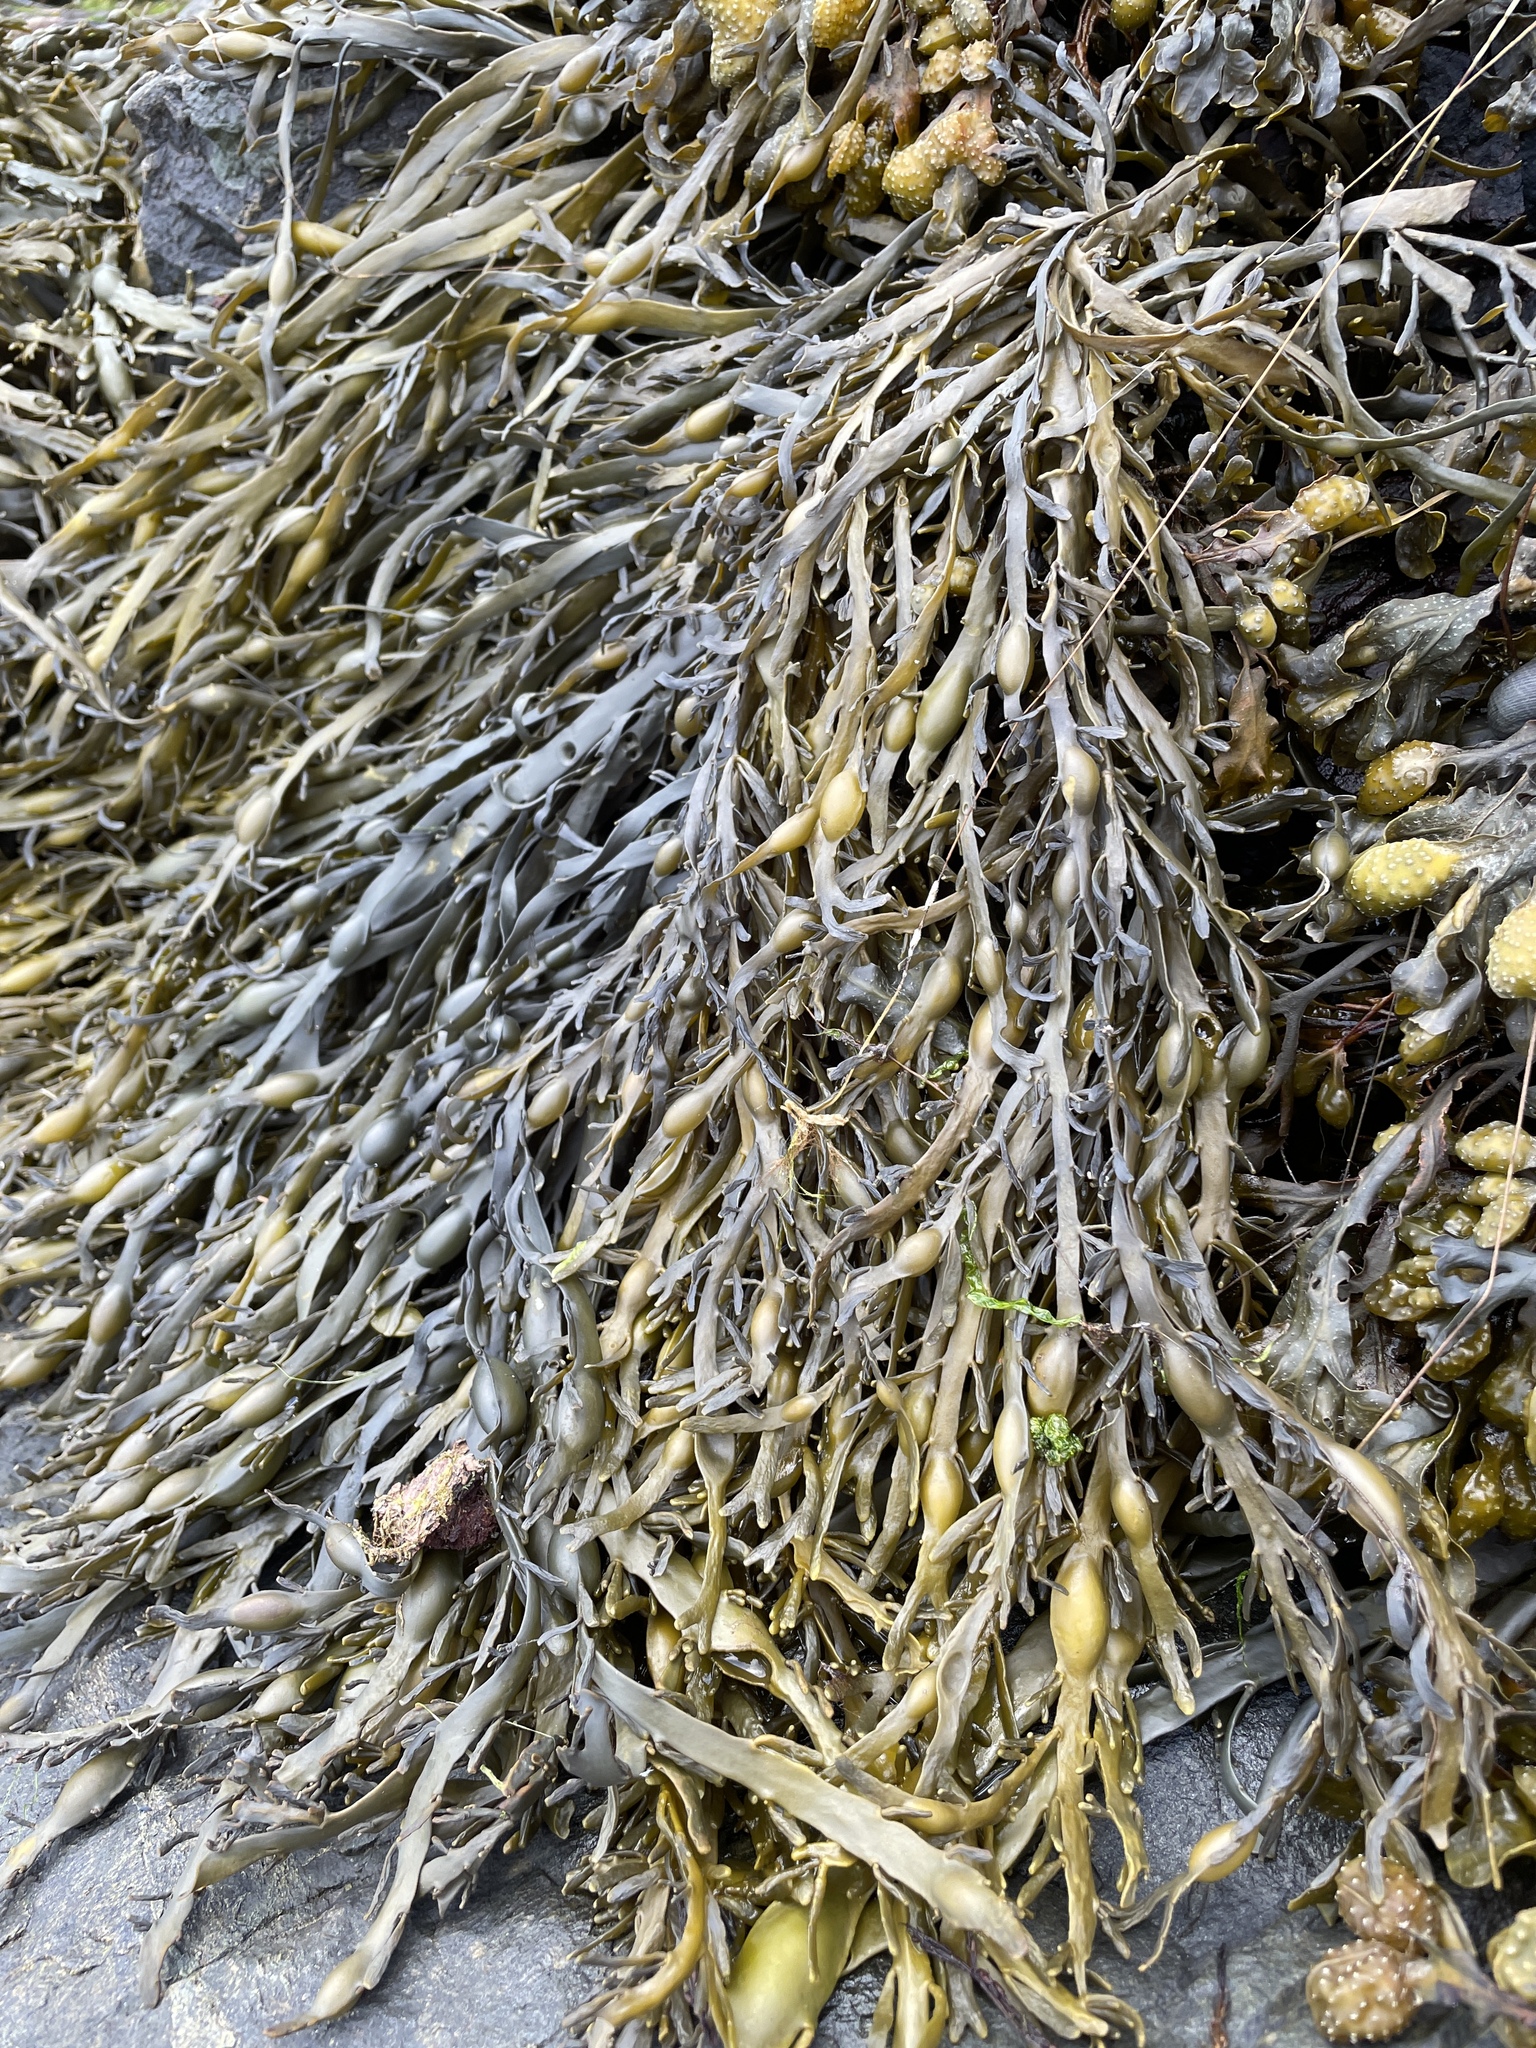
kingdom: Chromista
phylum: Ochrophyta
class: Phaeophyceae
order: Fucales
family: Fucaceae
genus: Ascophyllum
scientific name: Ascophyllum nodosum
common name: Knotted wrack
